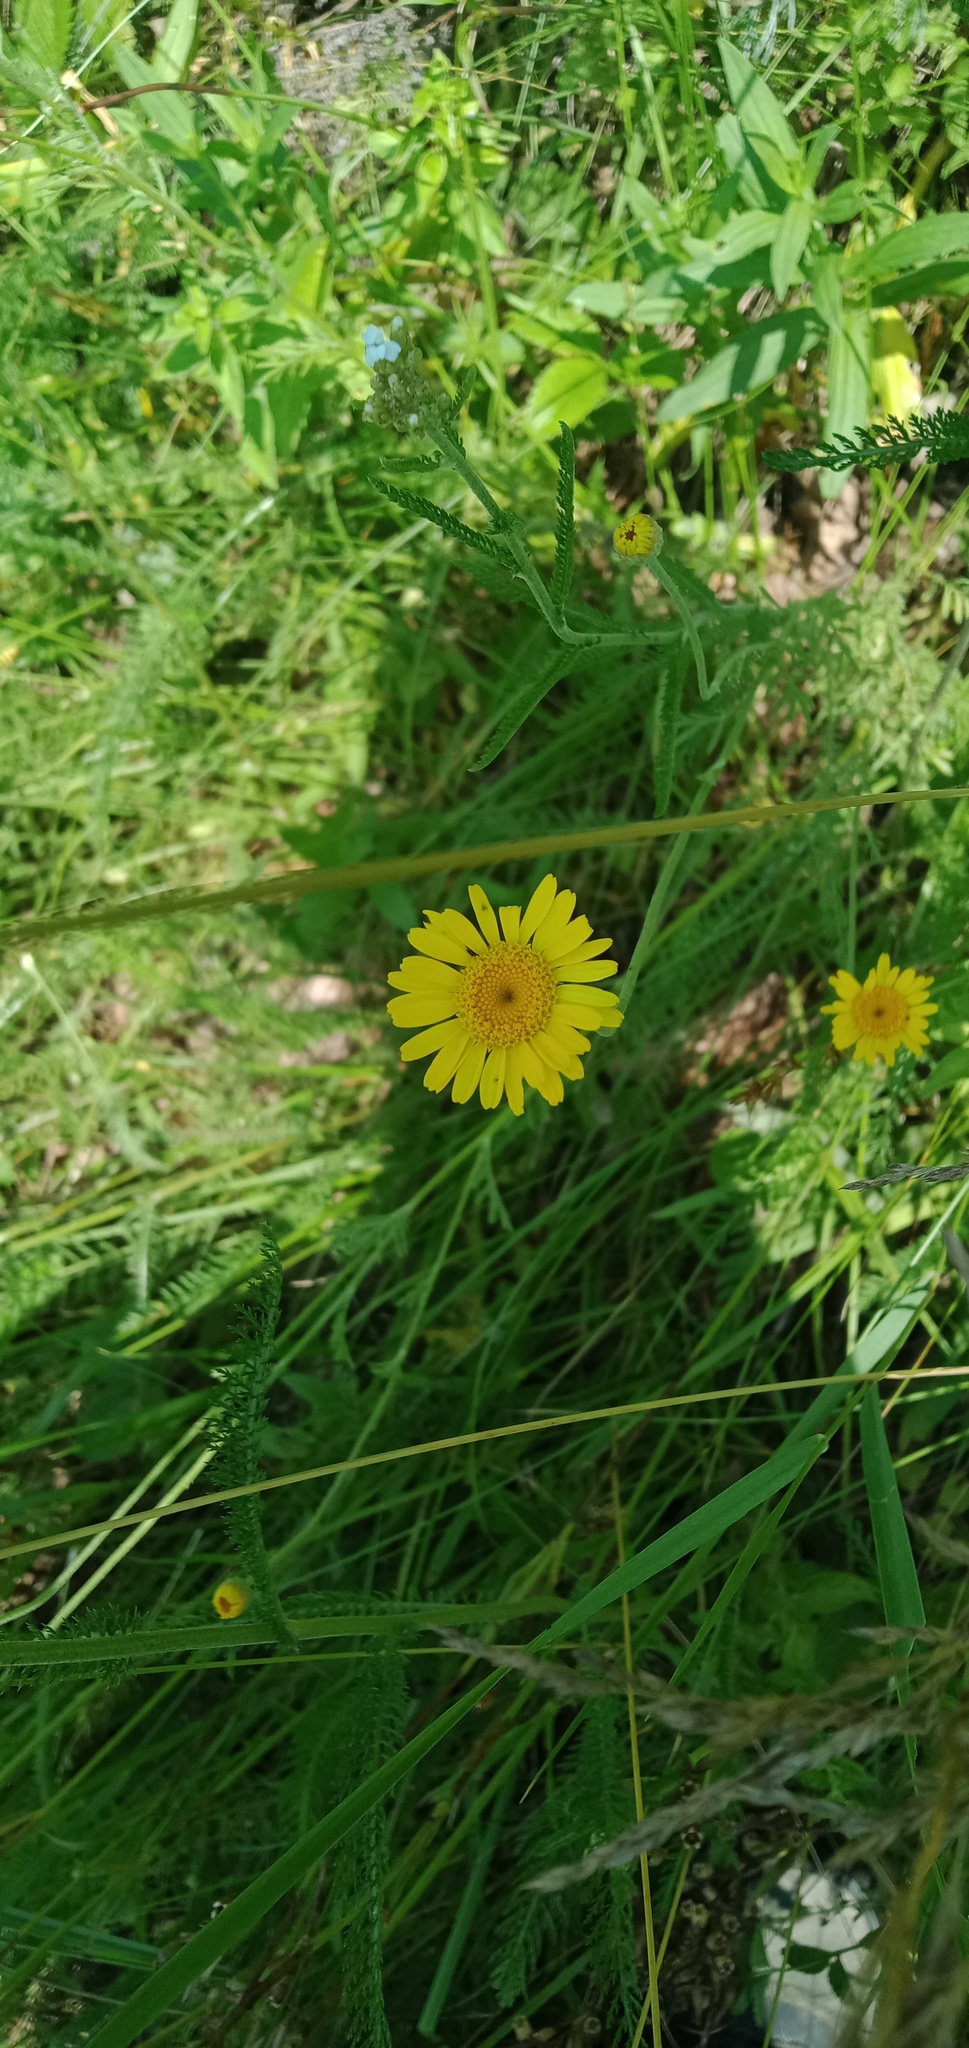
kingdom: Plantae
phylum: Tracheophyta
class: Magnoliopsida
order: Asterales
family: Asteraceae
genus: Cota
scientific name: Cota tinctoria
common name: Golden chamomile
